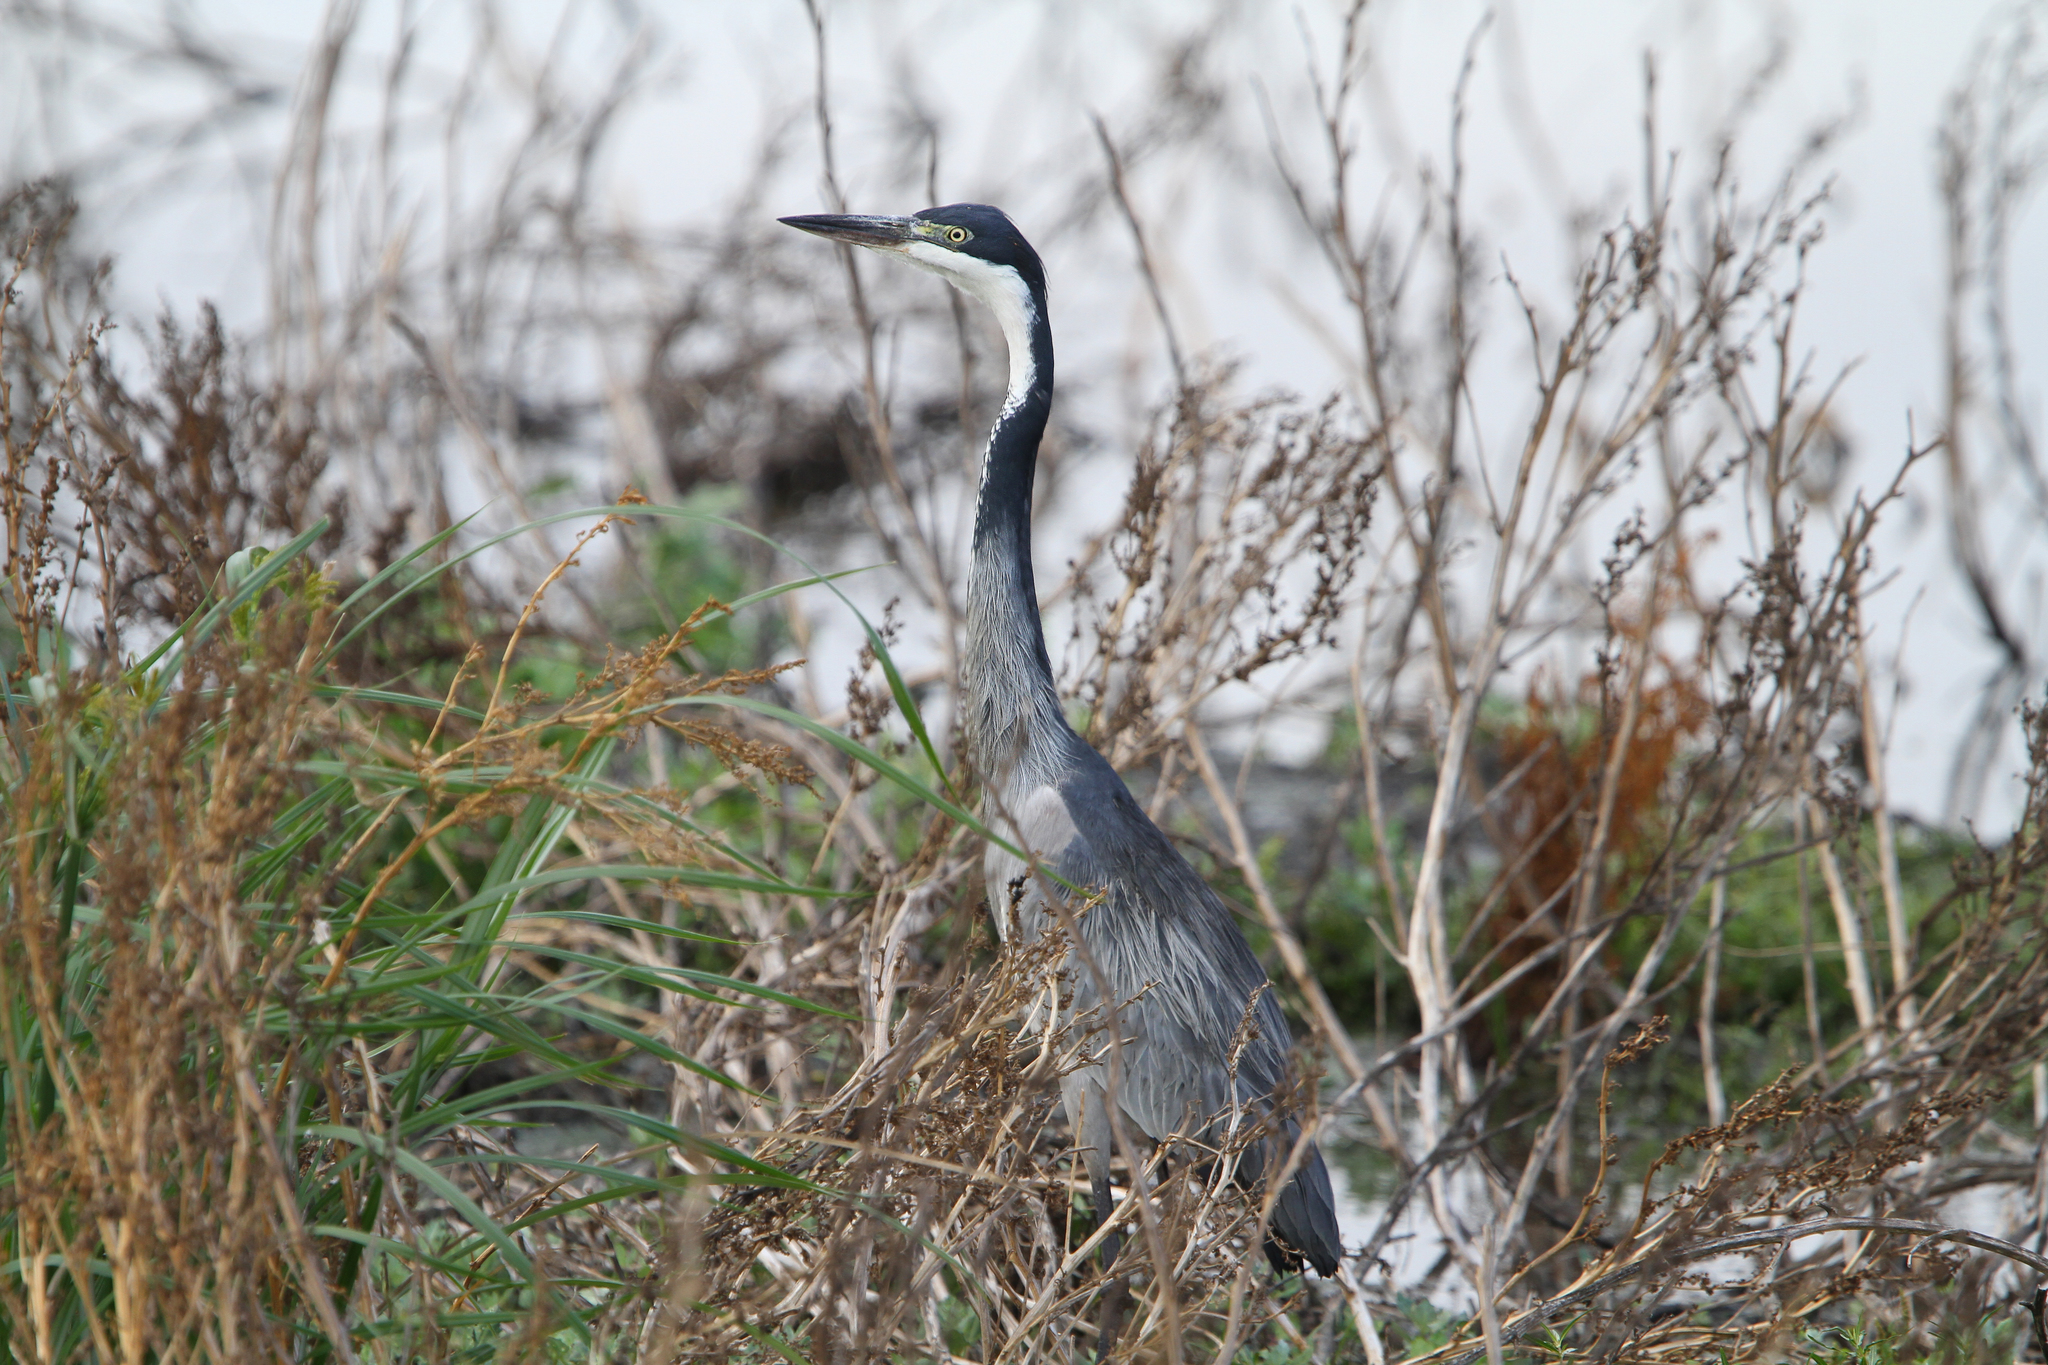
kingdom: Animalia
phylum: Chordata
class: Aves
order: Pelecaniformes
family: Ardeidae
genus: Ardea
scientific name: Ardea melanocephala
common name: Black-headed heron
